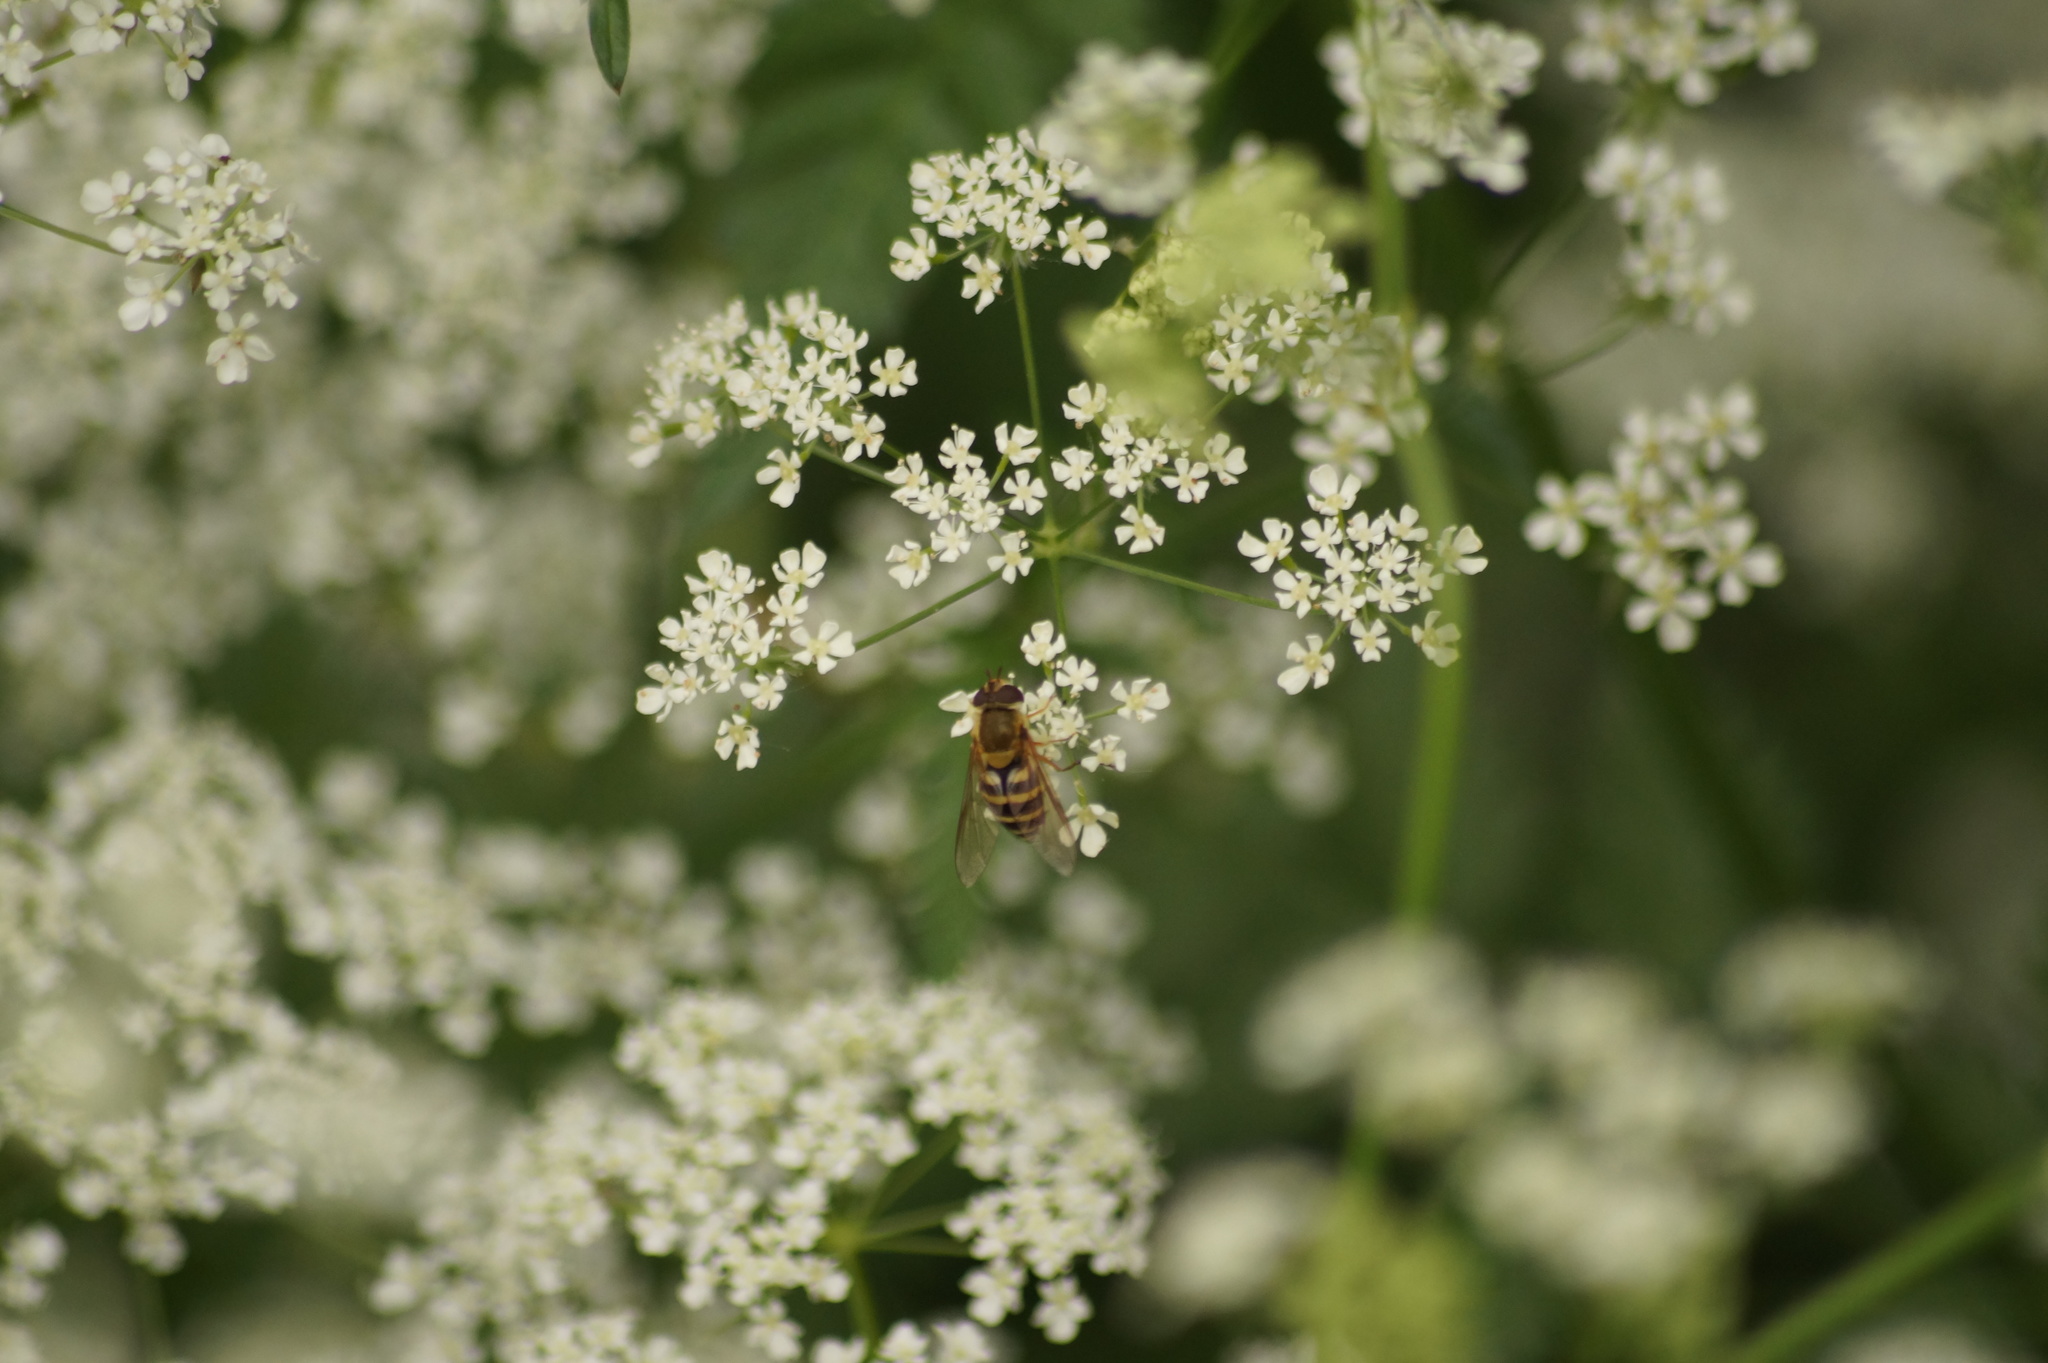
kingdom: Animalia
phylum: Arthropoda
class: Insecta
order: Diptera
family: Syrphidae
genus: Syrphus
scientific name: Syrphus
